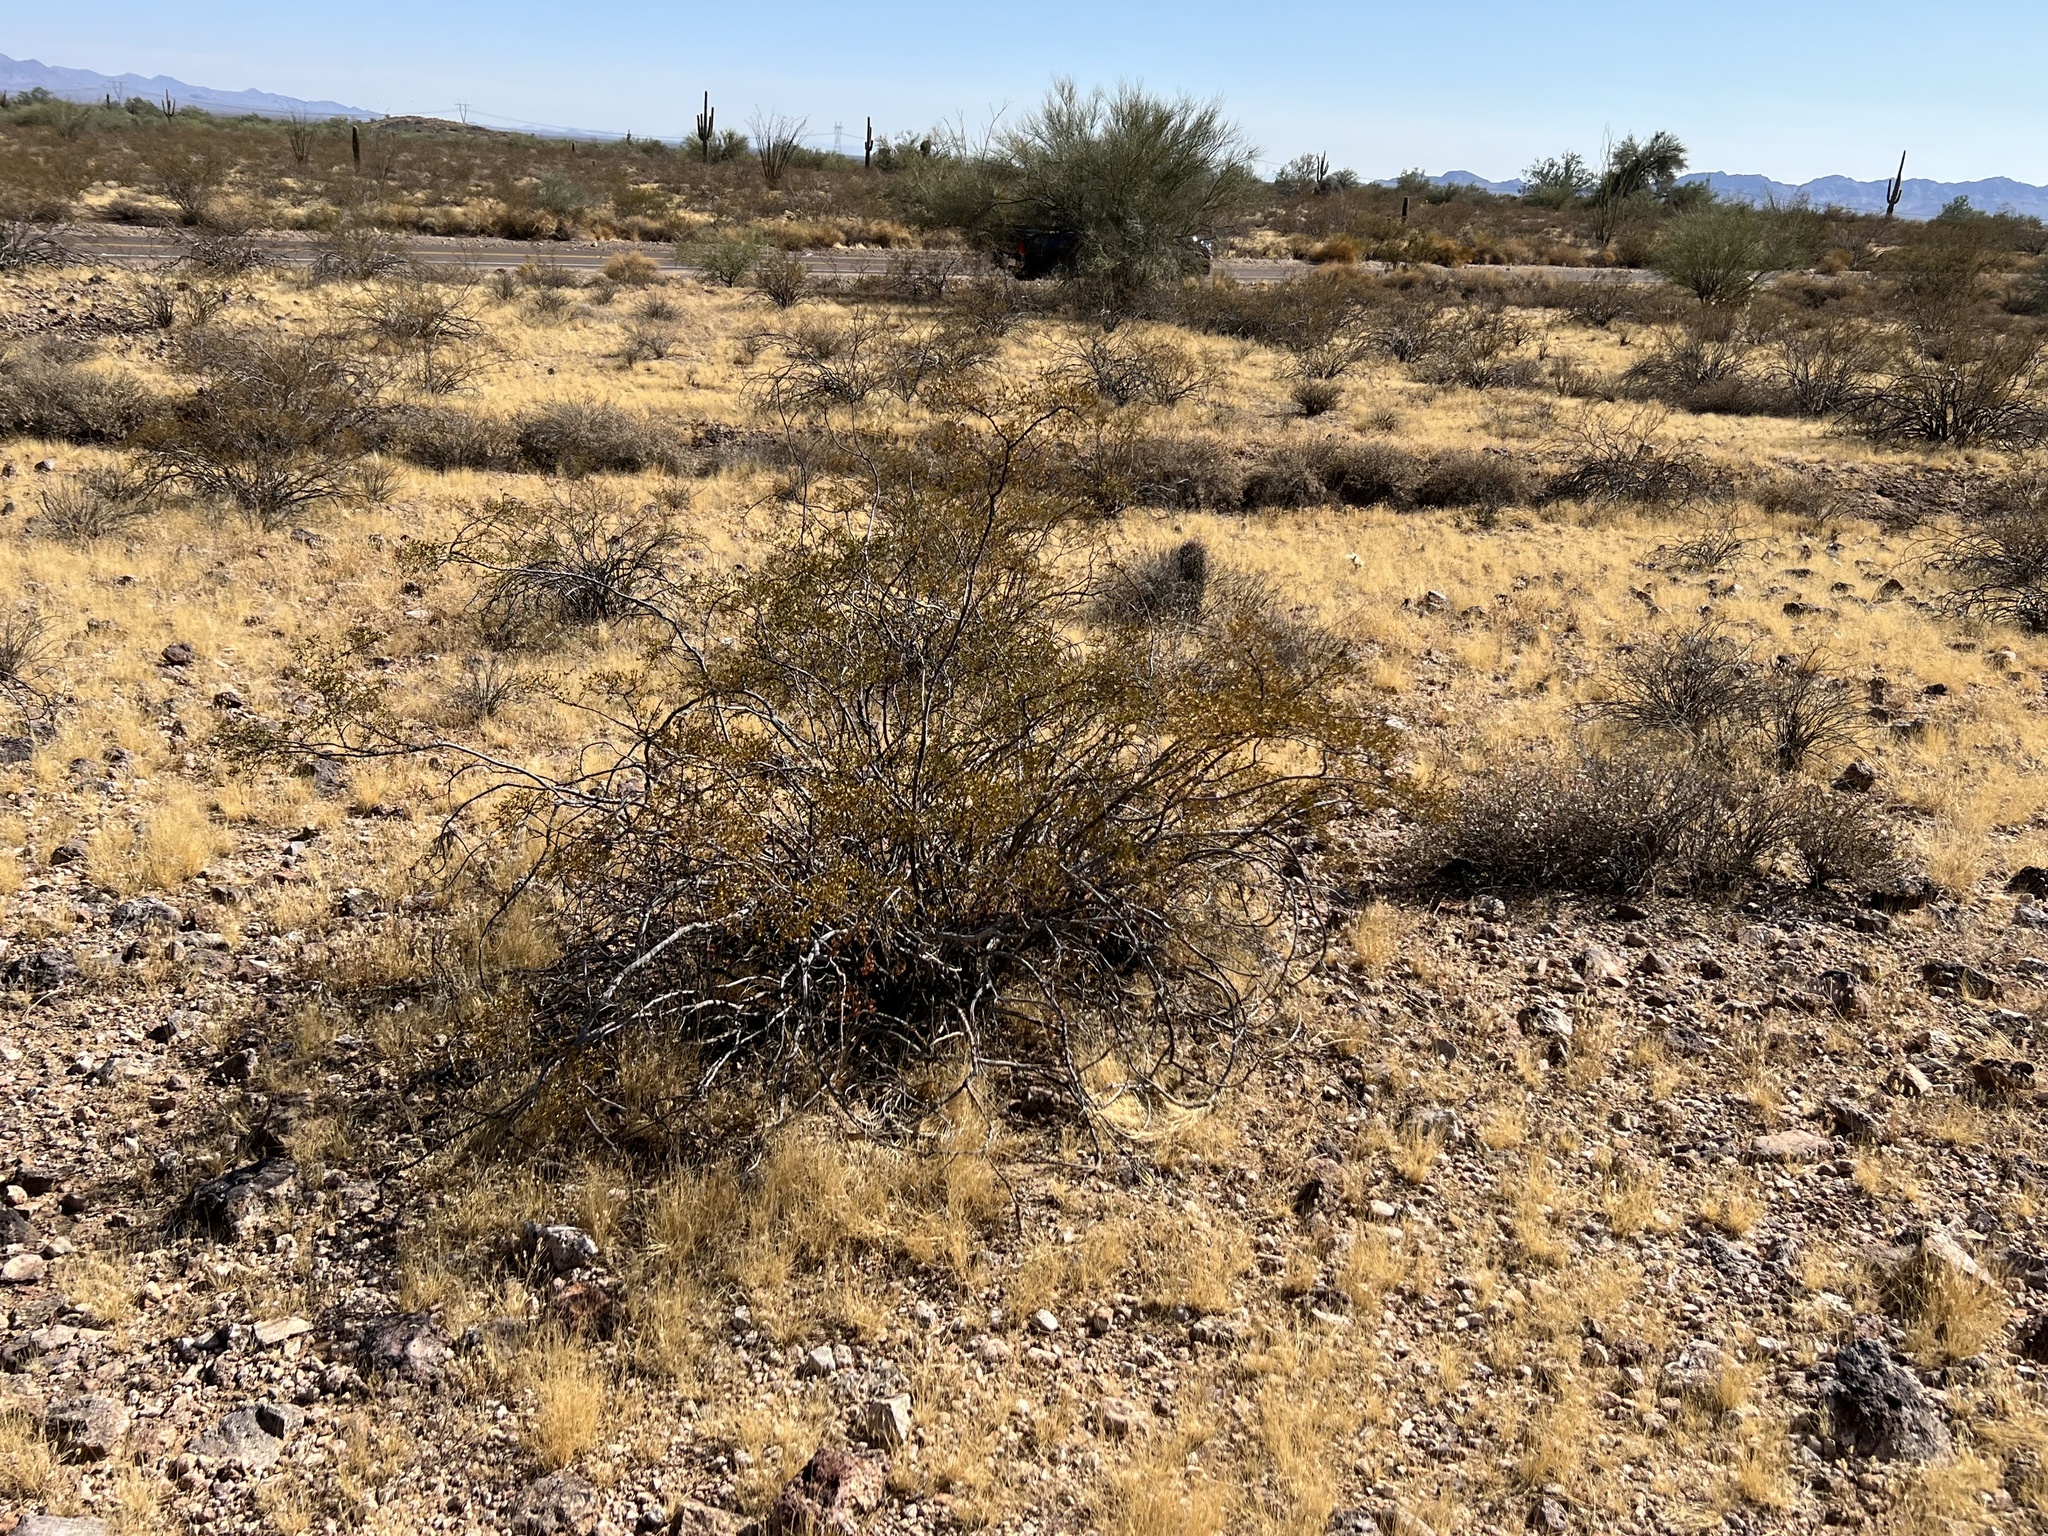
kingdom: Plantae
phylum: Tracheophyta
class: Magnoliopsida
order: Zygophyllales
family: Zygophyllaceae
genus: Larrea
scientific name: Larrea tridentata
